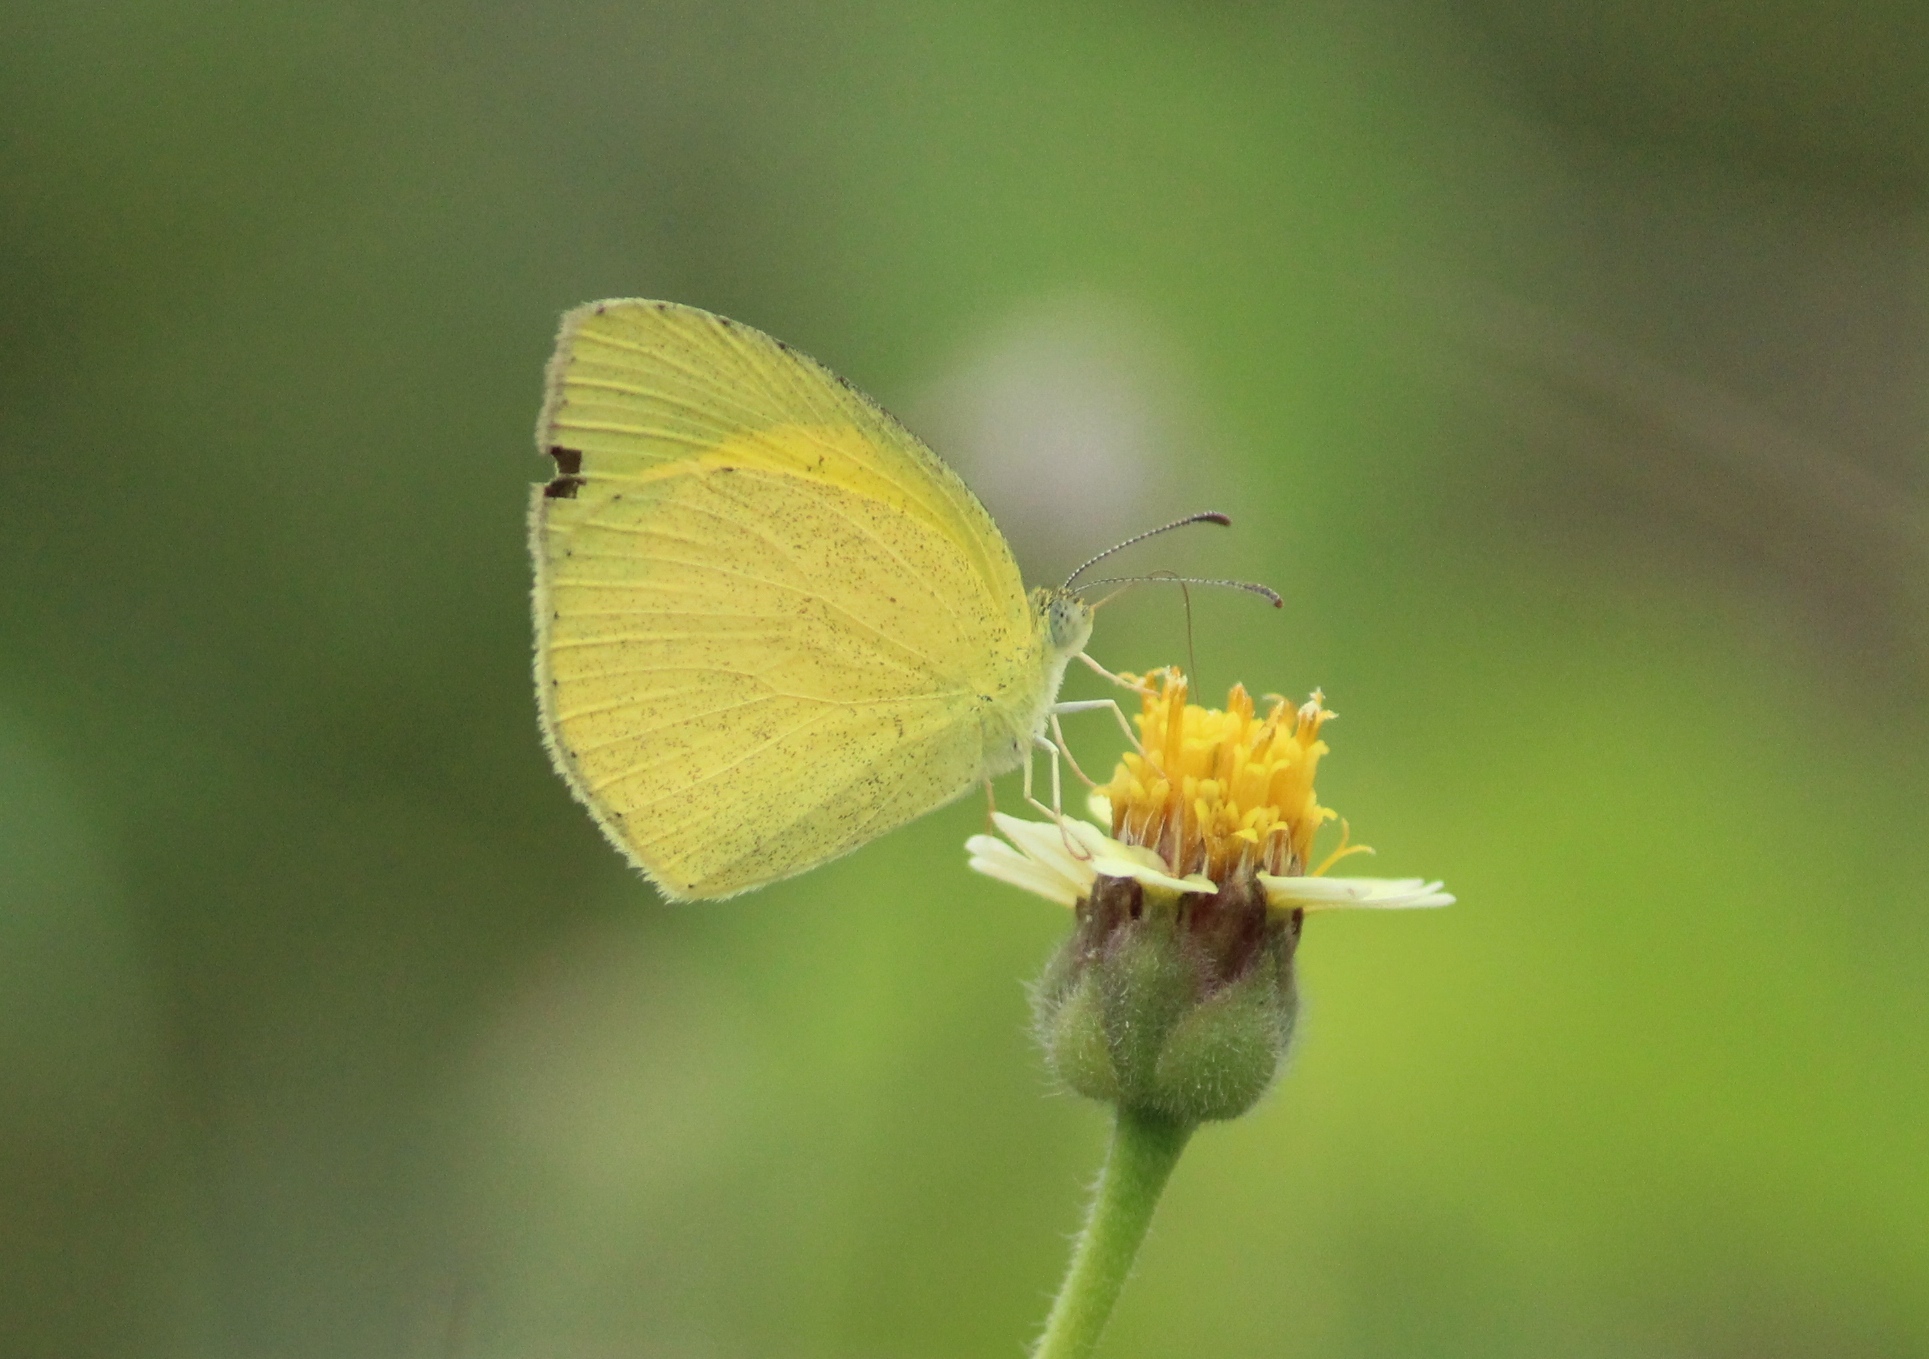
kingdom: Animalia
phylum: Arthropoda
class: Insecta
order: Lepidoptera
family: Pieridae
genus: Eurema
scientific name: Eurema laeta
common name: Spotless grass yellow
